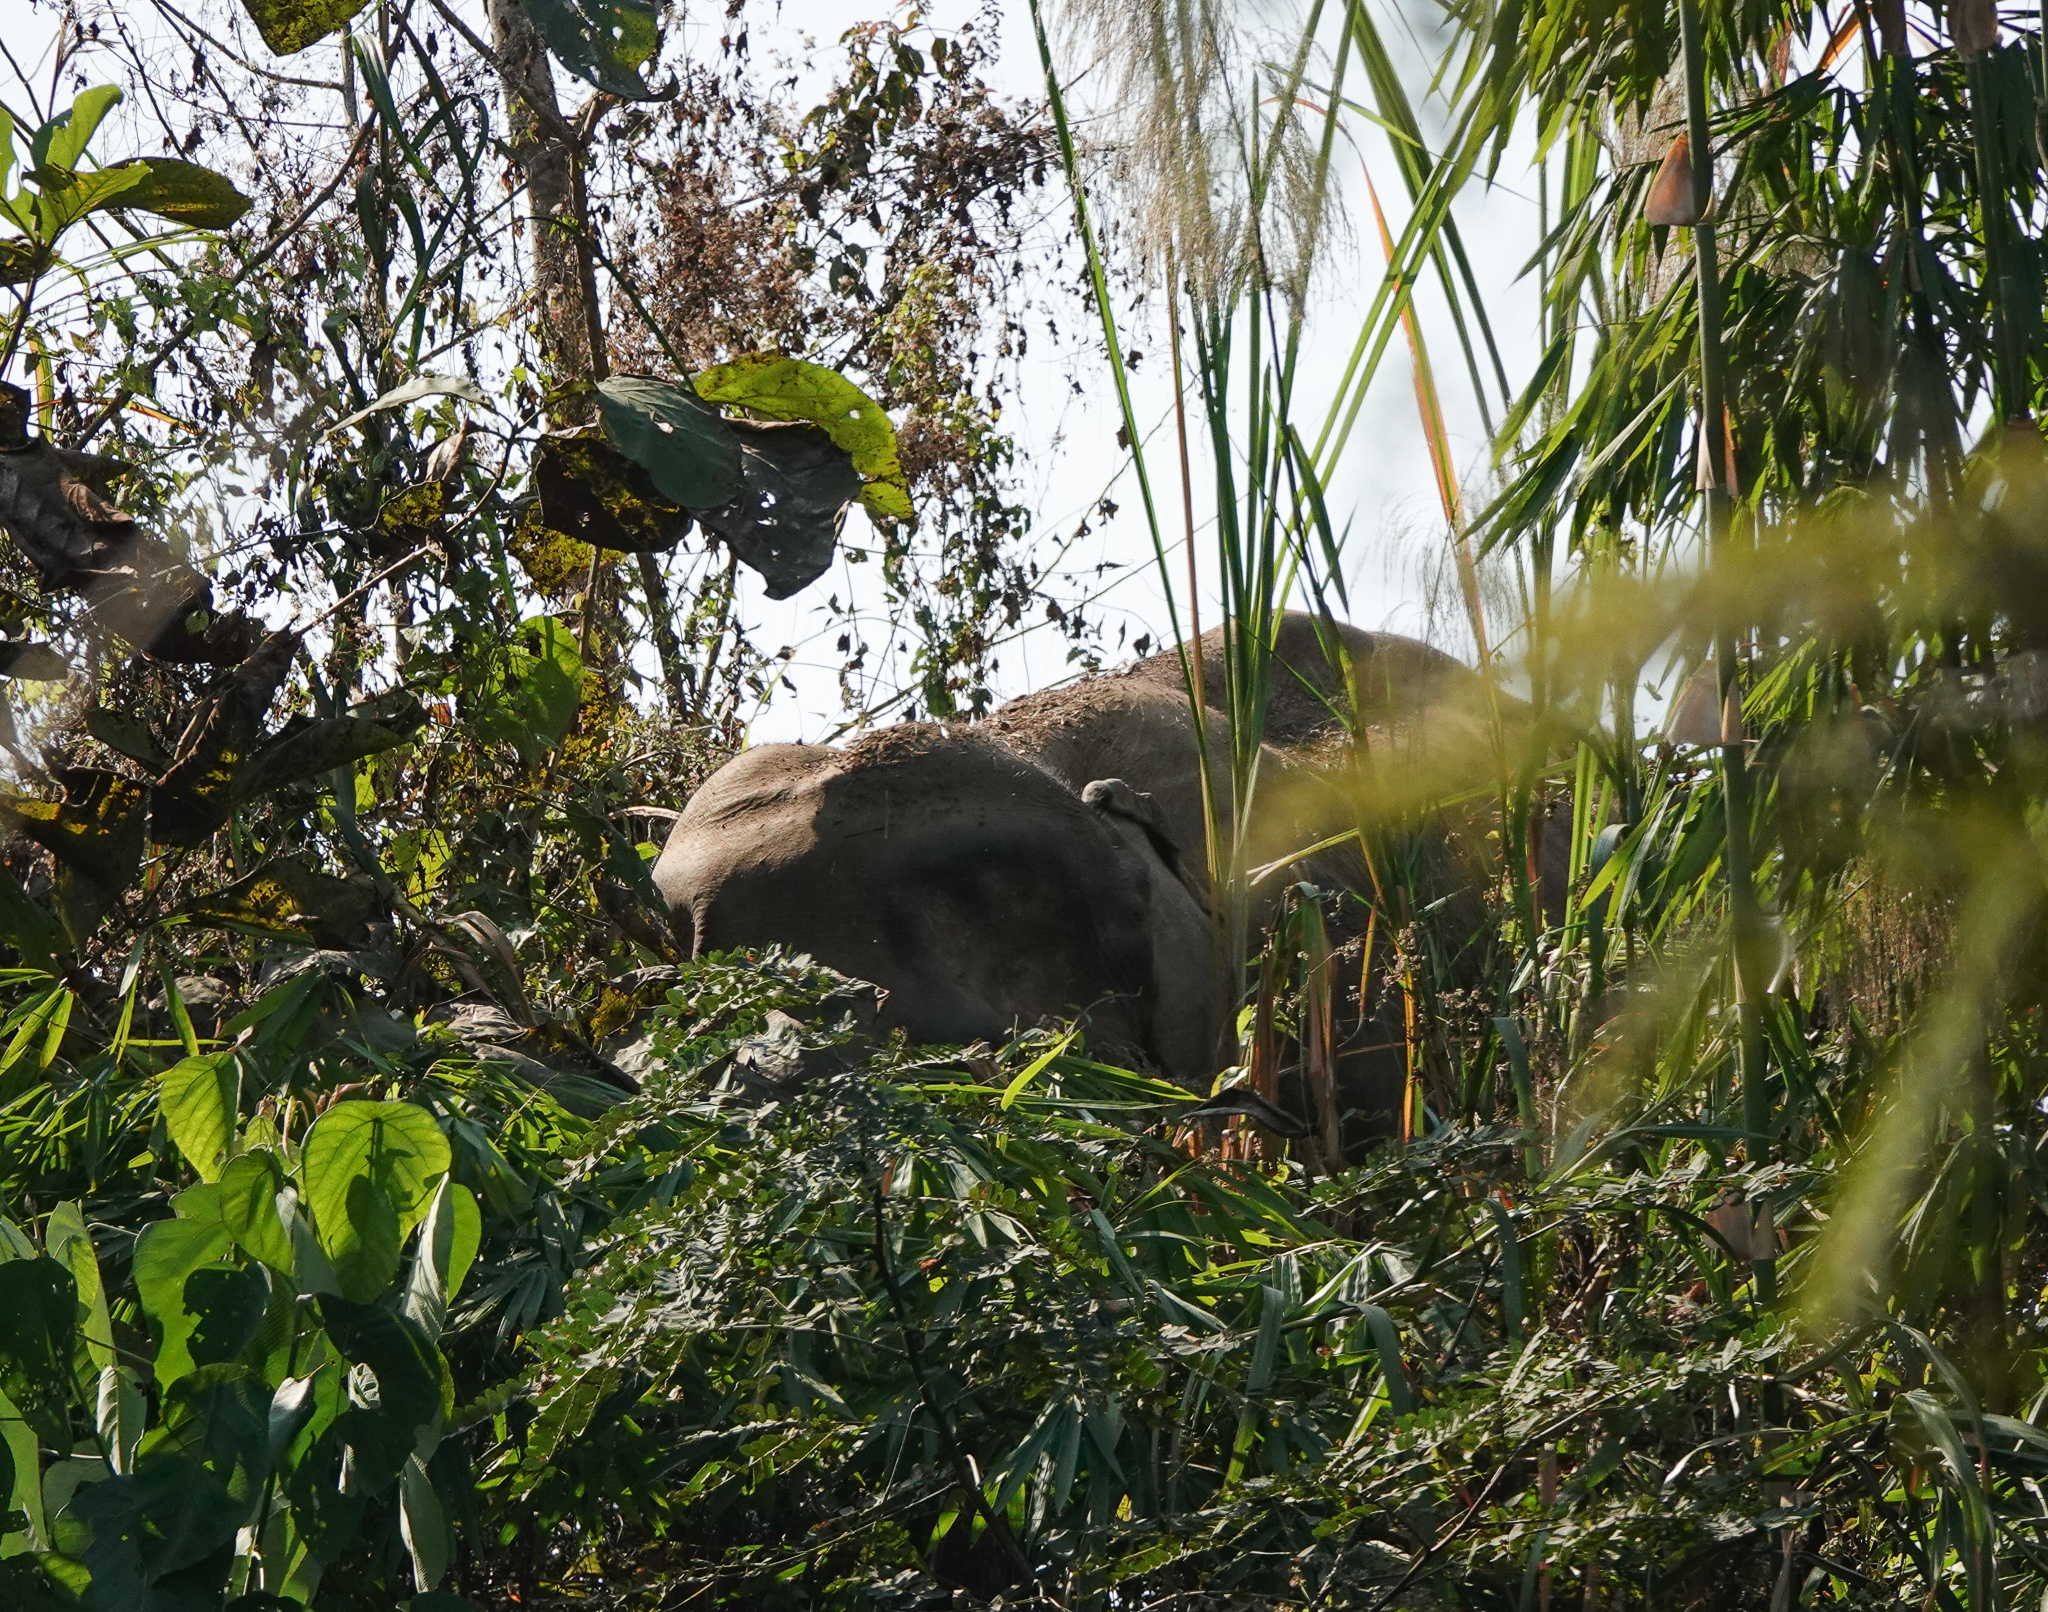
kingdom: Animalia
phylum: Chordata
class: Mammalia
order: Proboscidea
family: Elephantidae
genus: Elephas
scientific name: Elephas maximus
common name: Asian elephant
